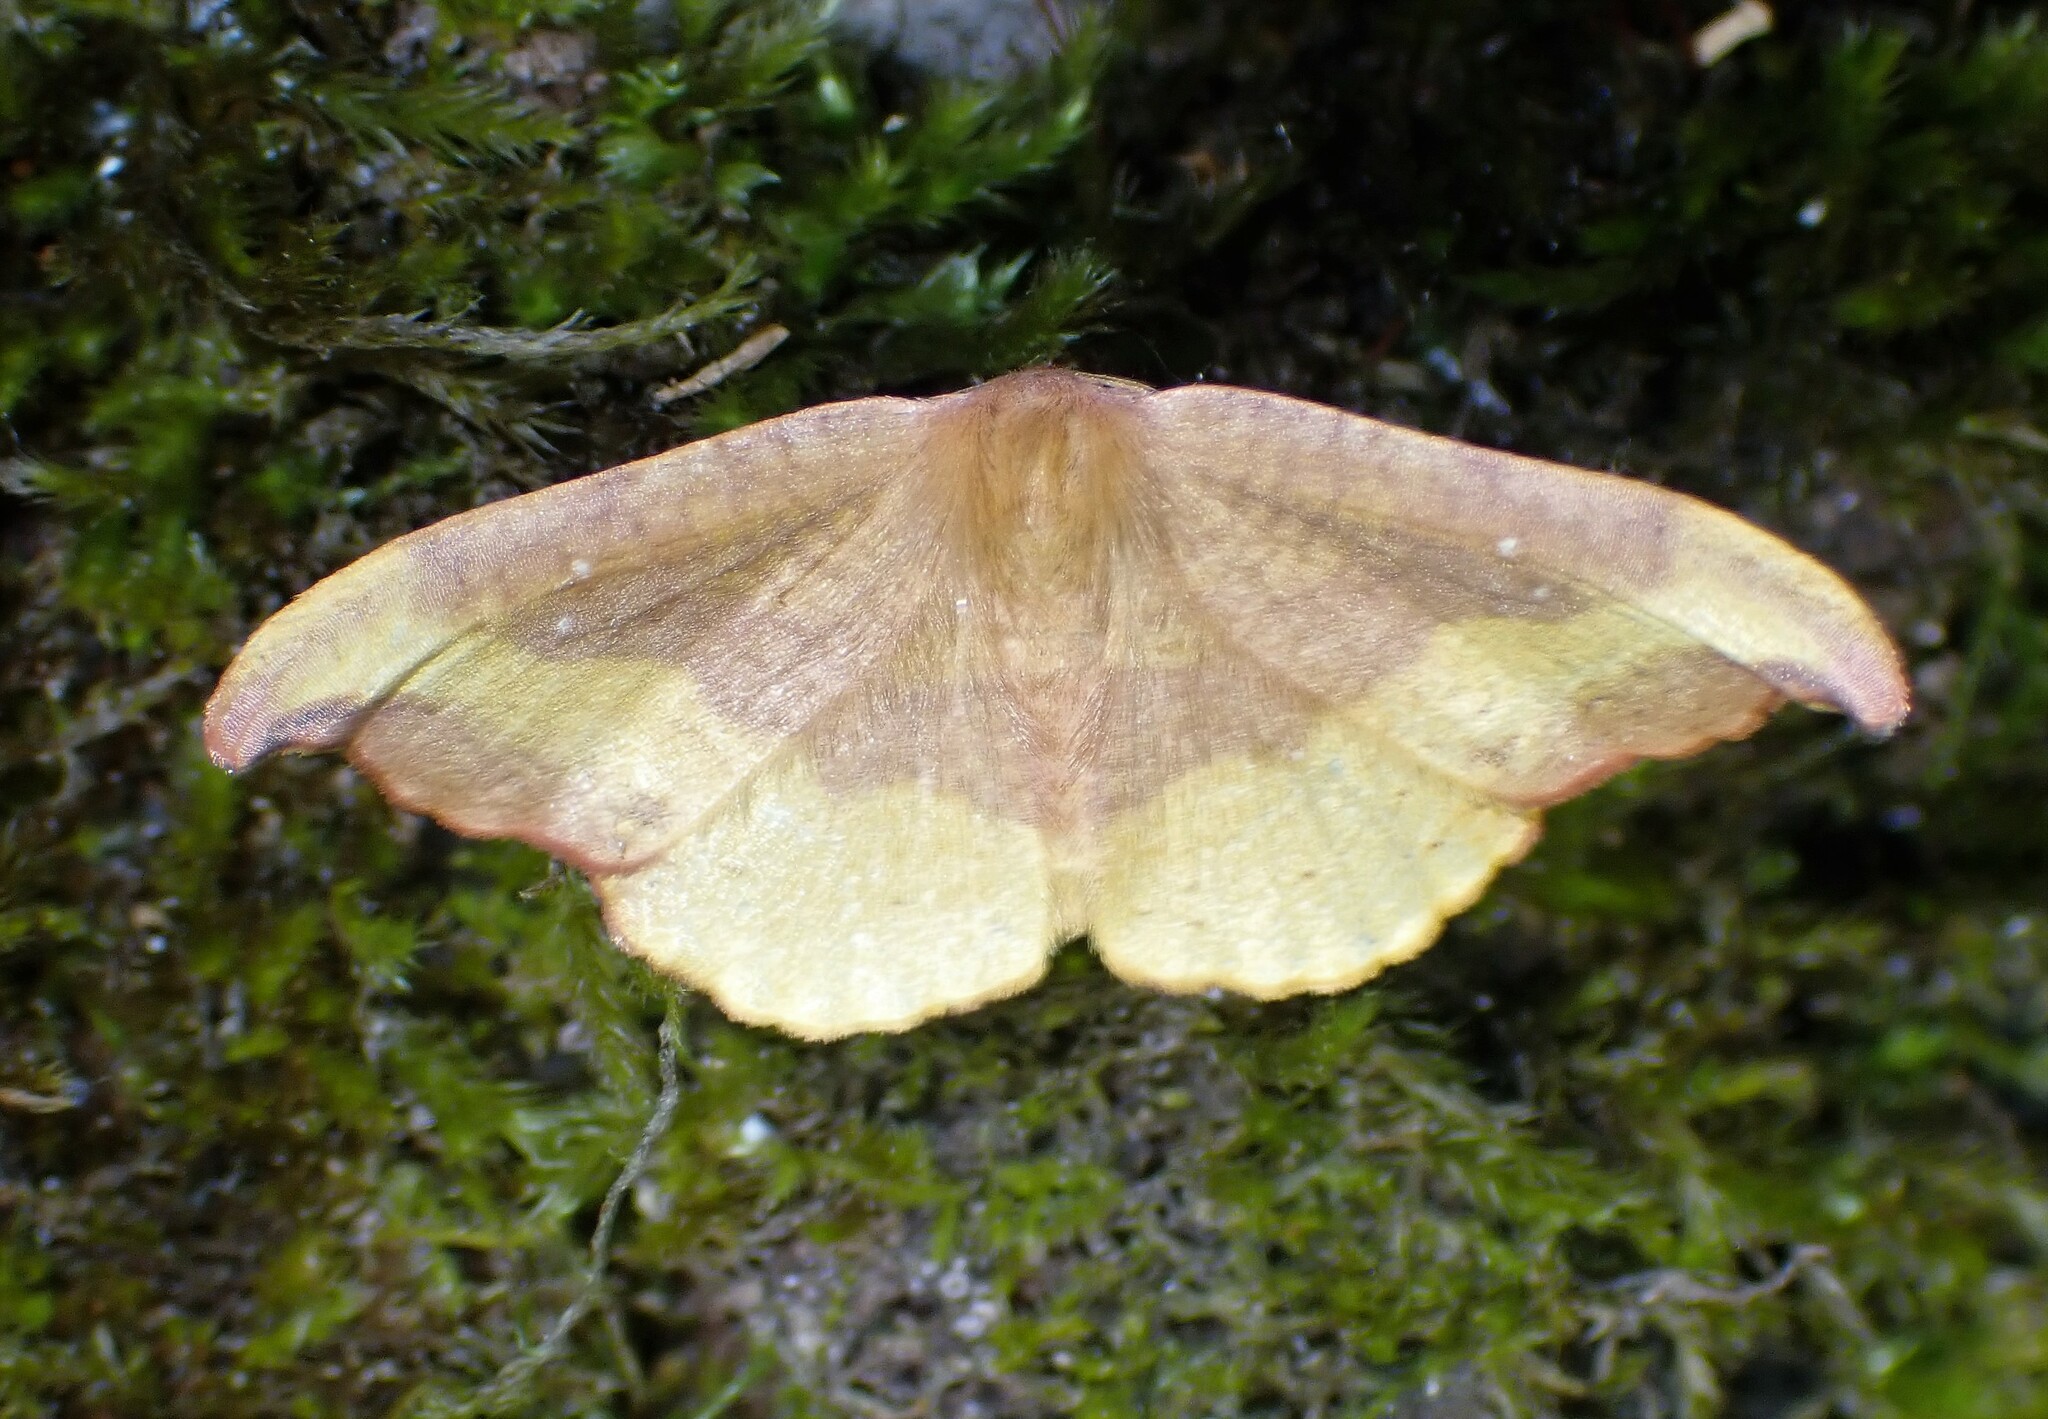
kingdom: Animalia
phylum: Arthropoda
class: Insecta
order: Lepidoptera
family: Drepanidae
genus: Oreta
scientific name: Oreta rosea
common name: Rose hooktip
